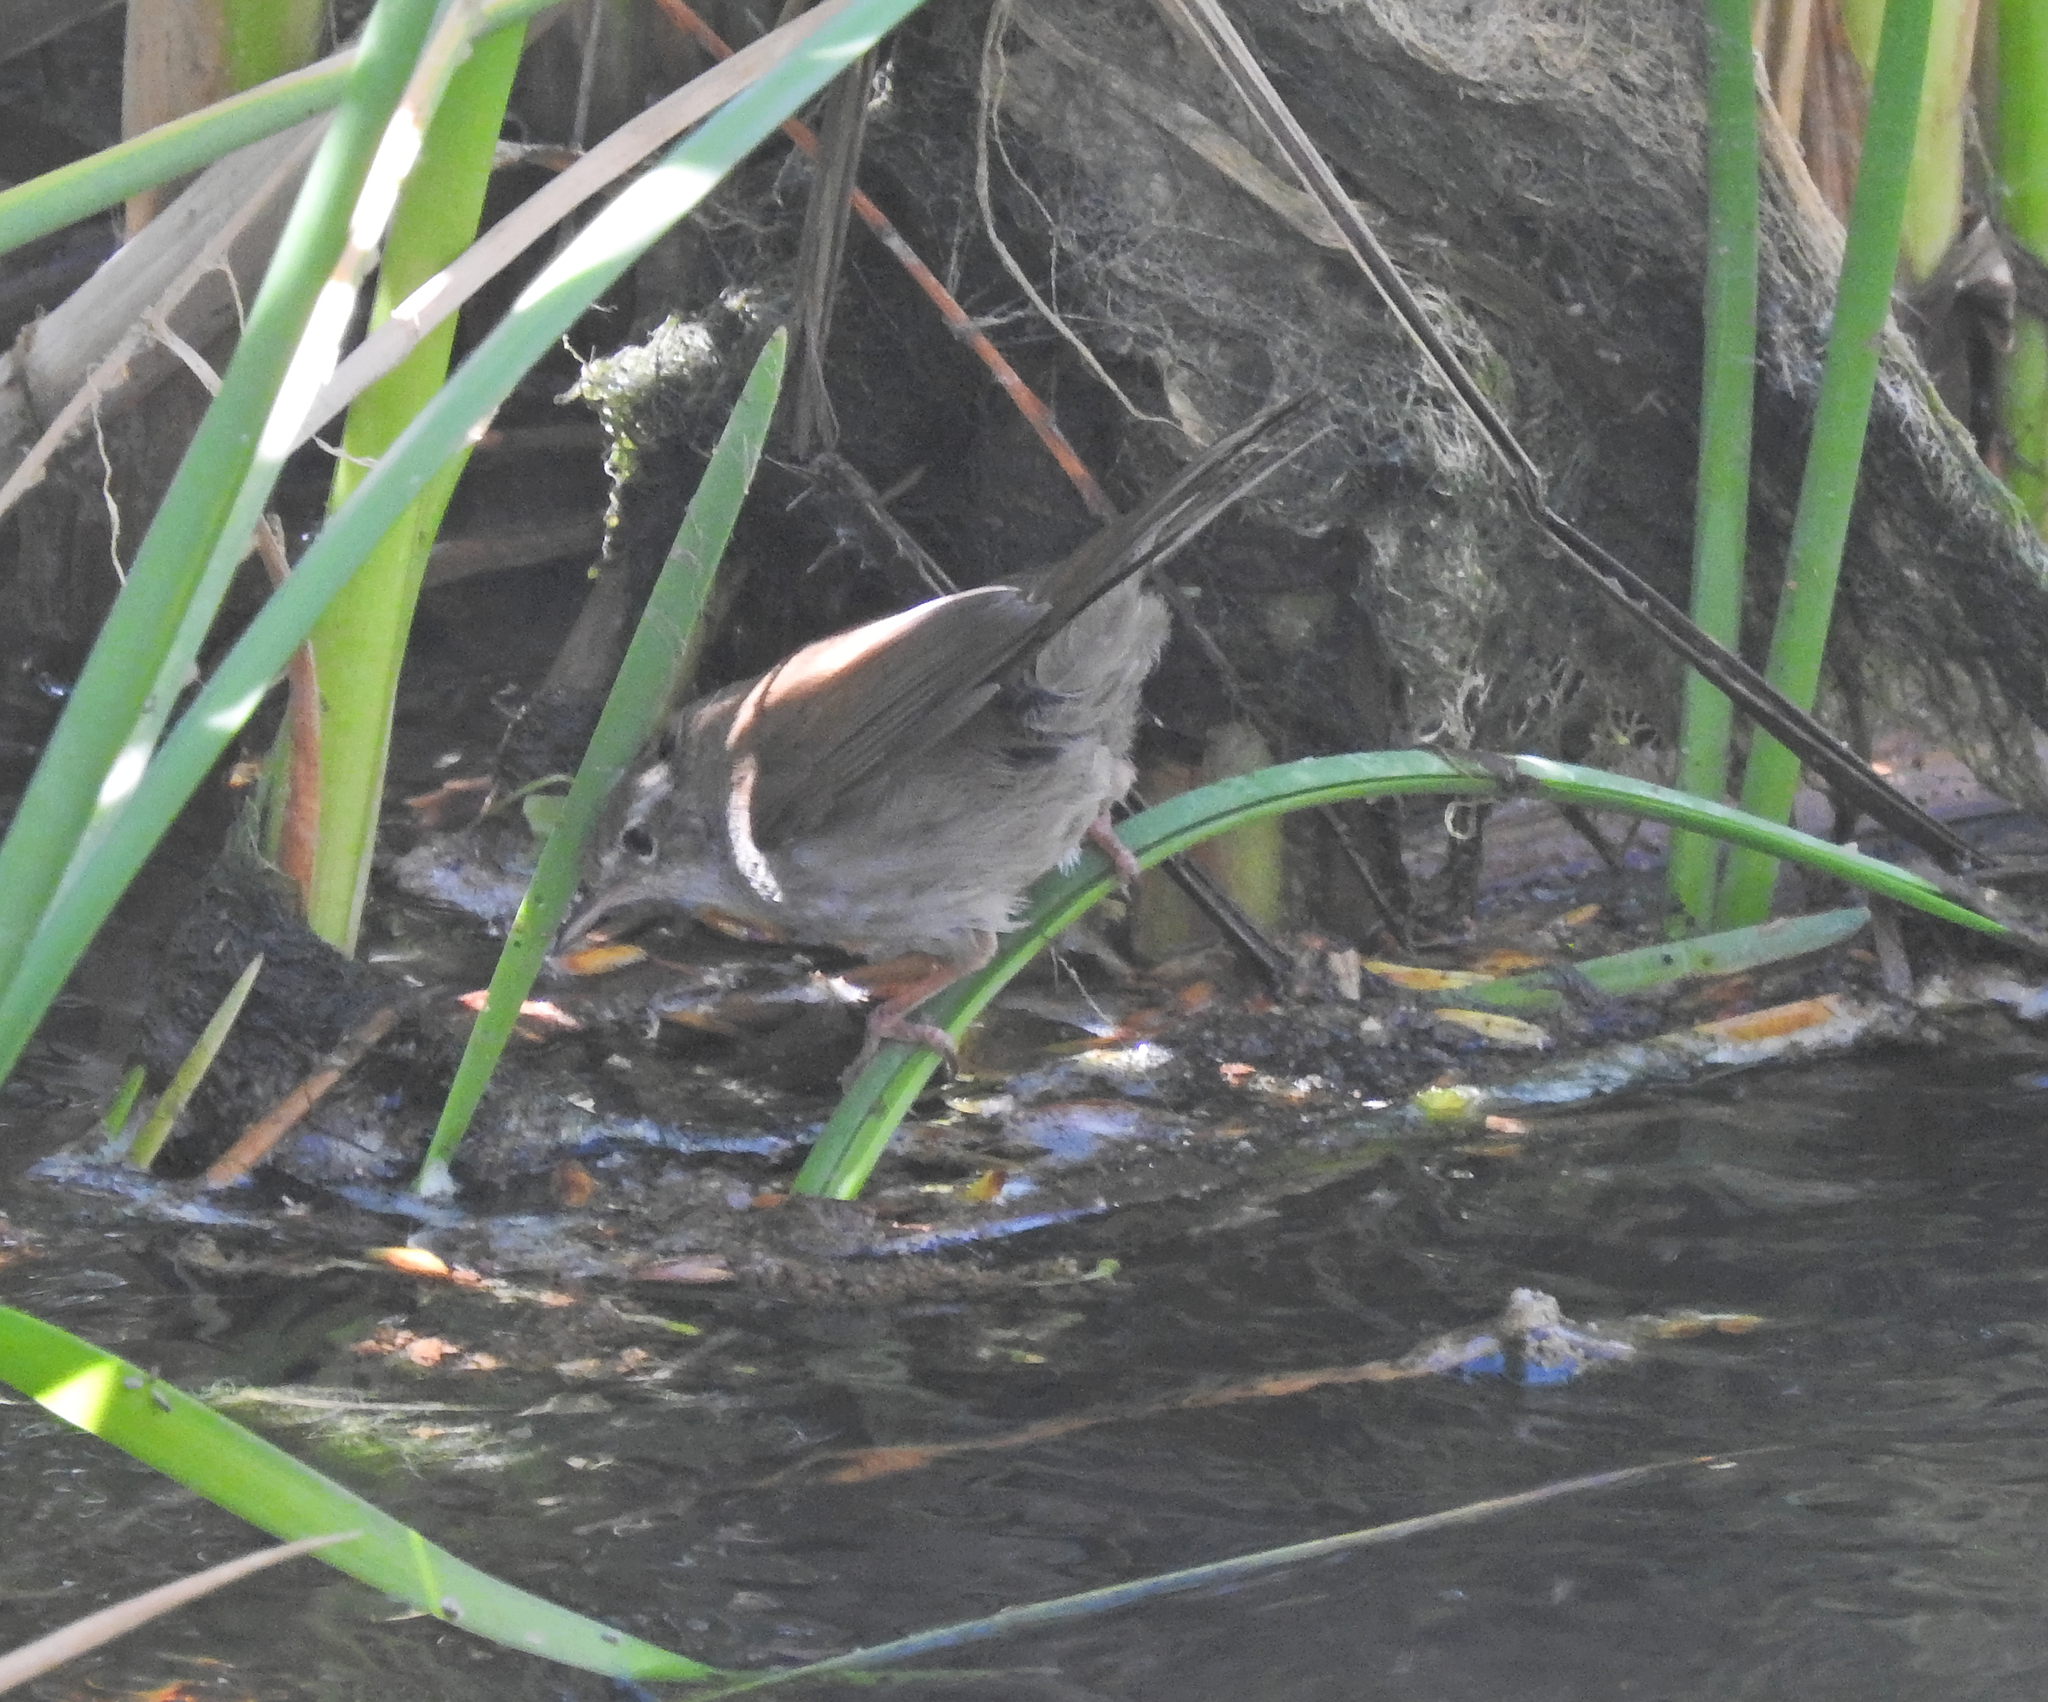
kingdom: Animalia
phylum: Chordata
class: Aves
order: Passeriformes
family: Cettiidae
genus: Cettia
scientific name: Cettia cetti
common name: Cetti's warbler
